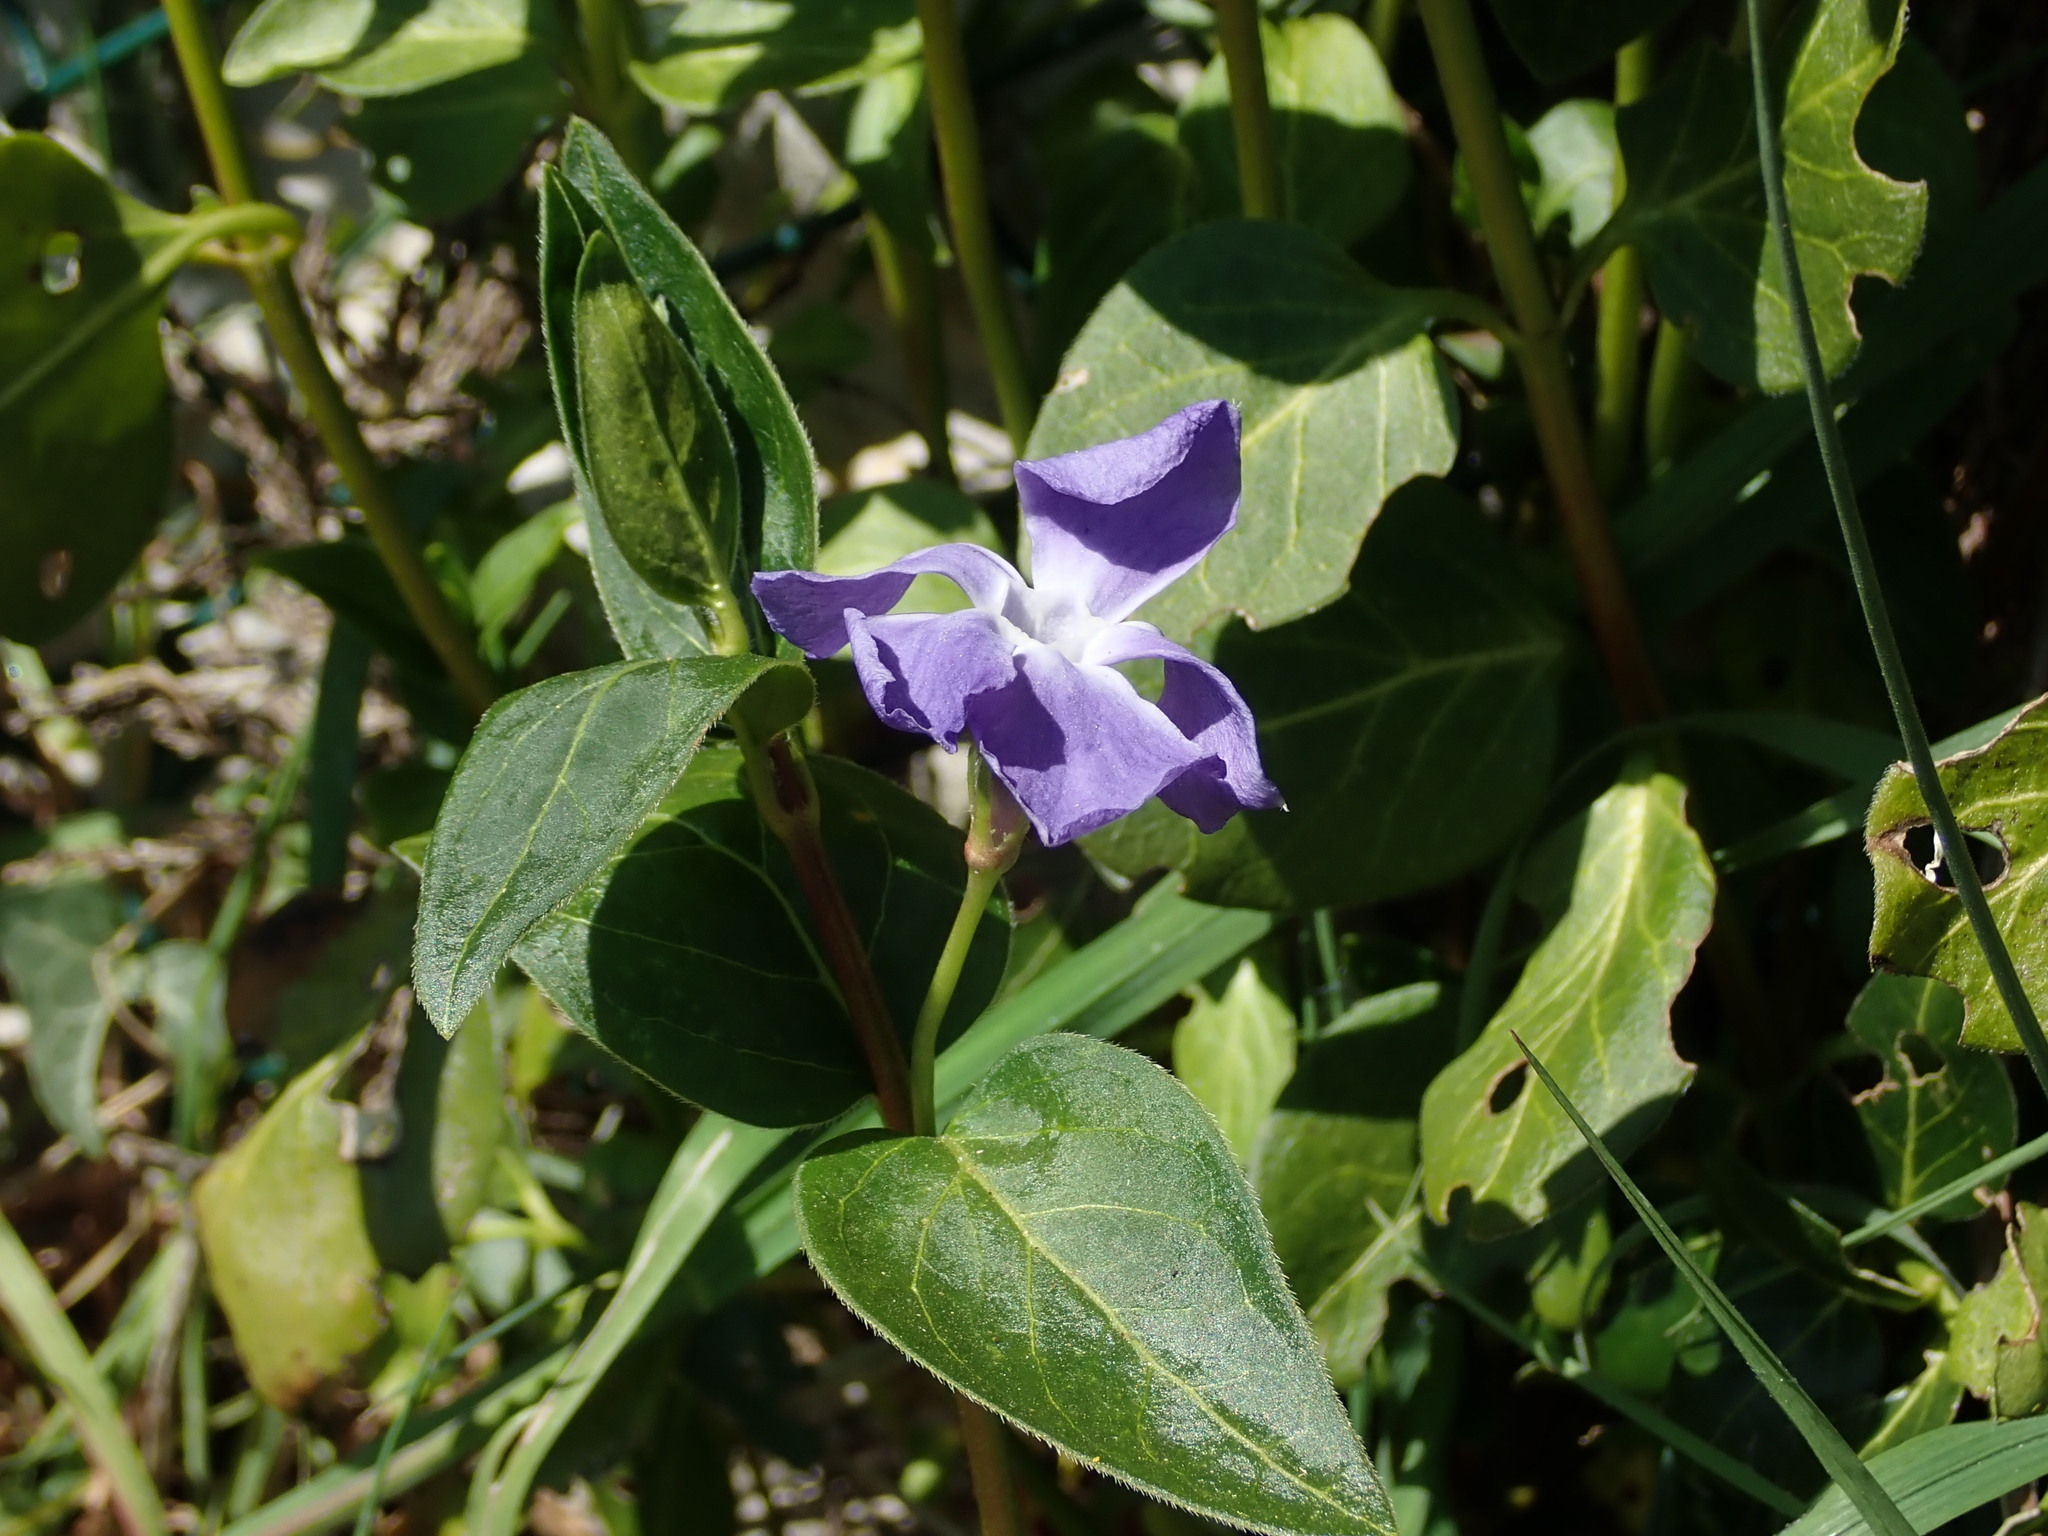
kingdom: Plantae
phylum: Tracheophyta
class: Magnoliopsida
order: Gentianales
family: Apocynaceae
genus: Vinca
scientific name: Vinca major
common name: Greater periwinkle
